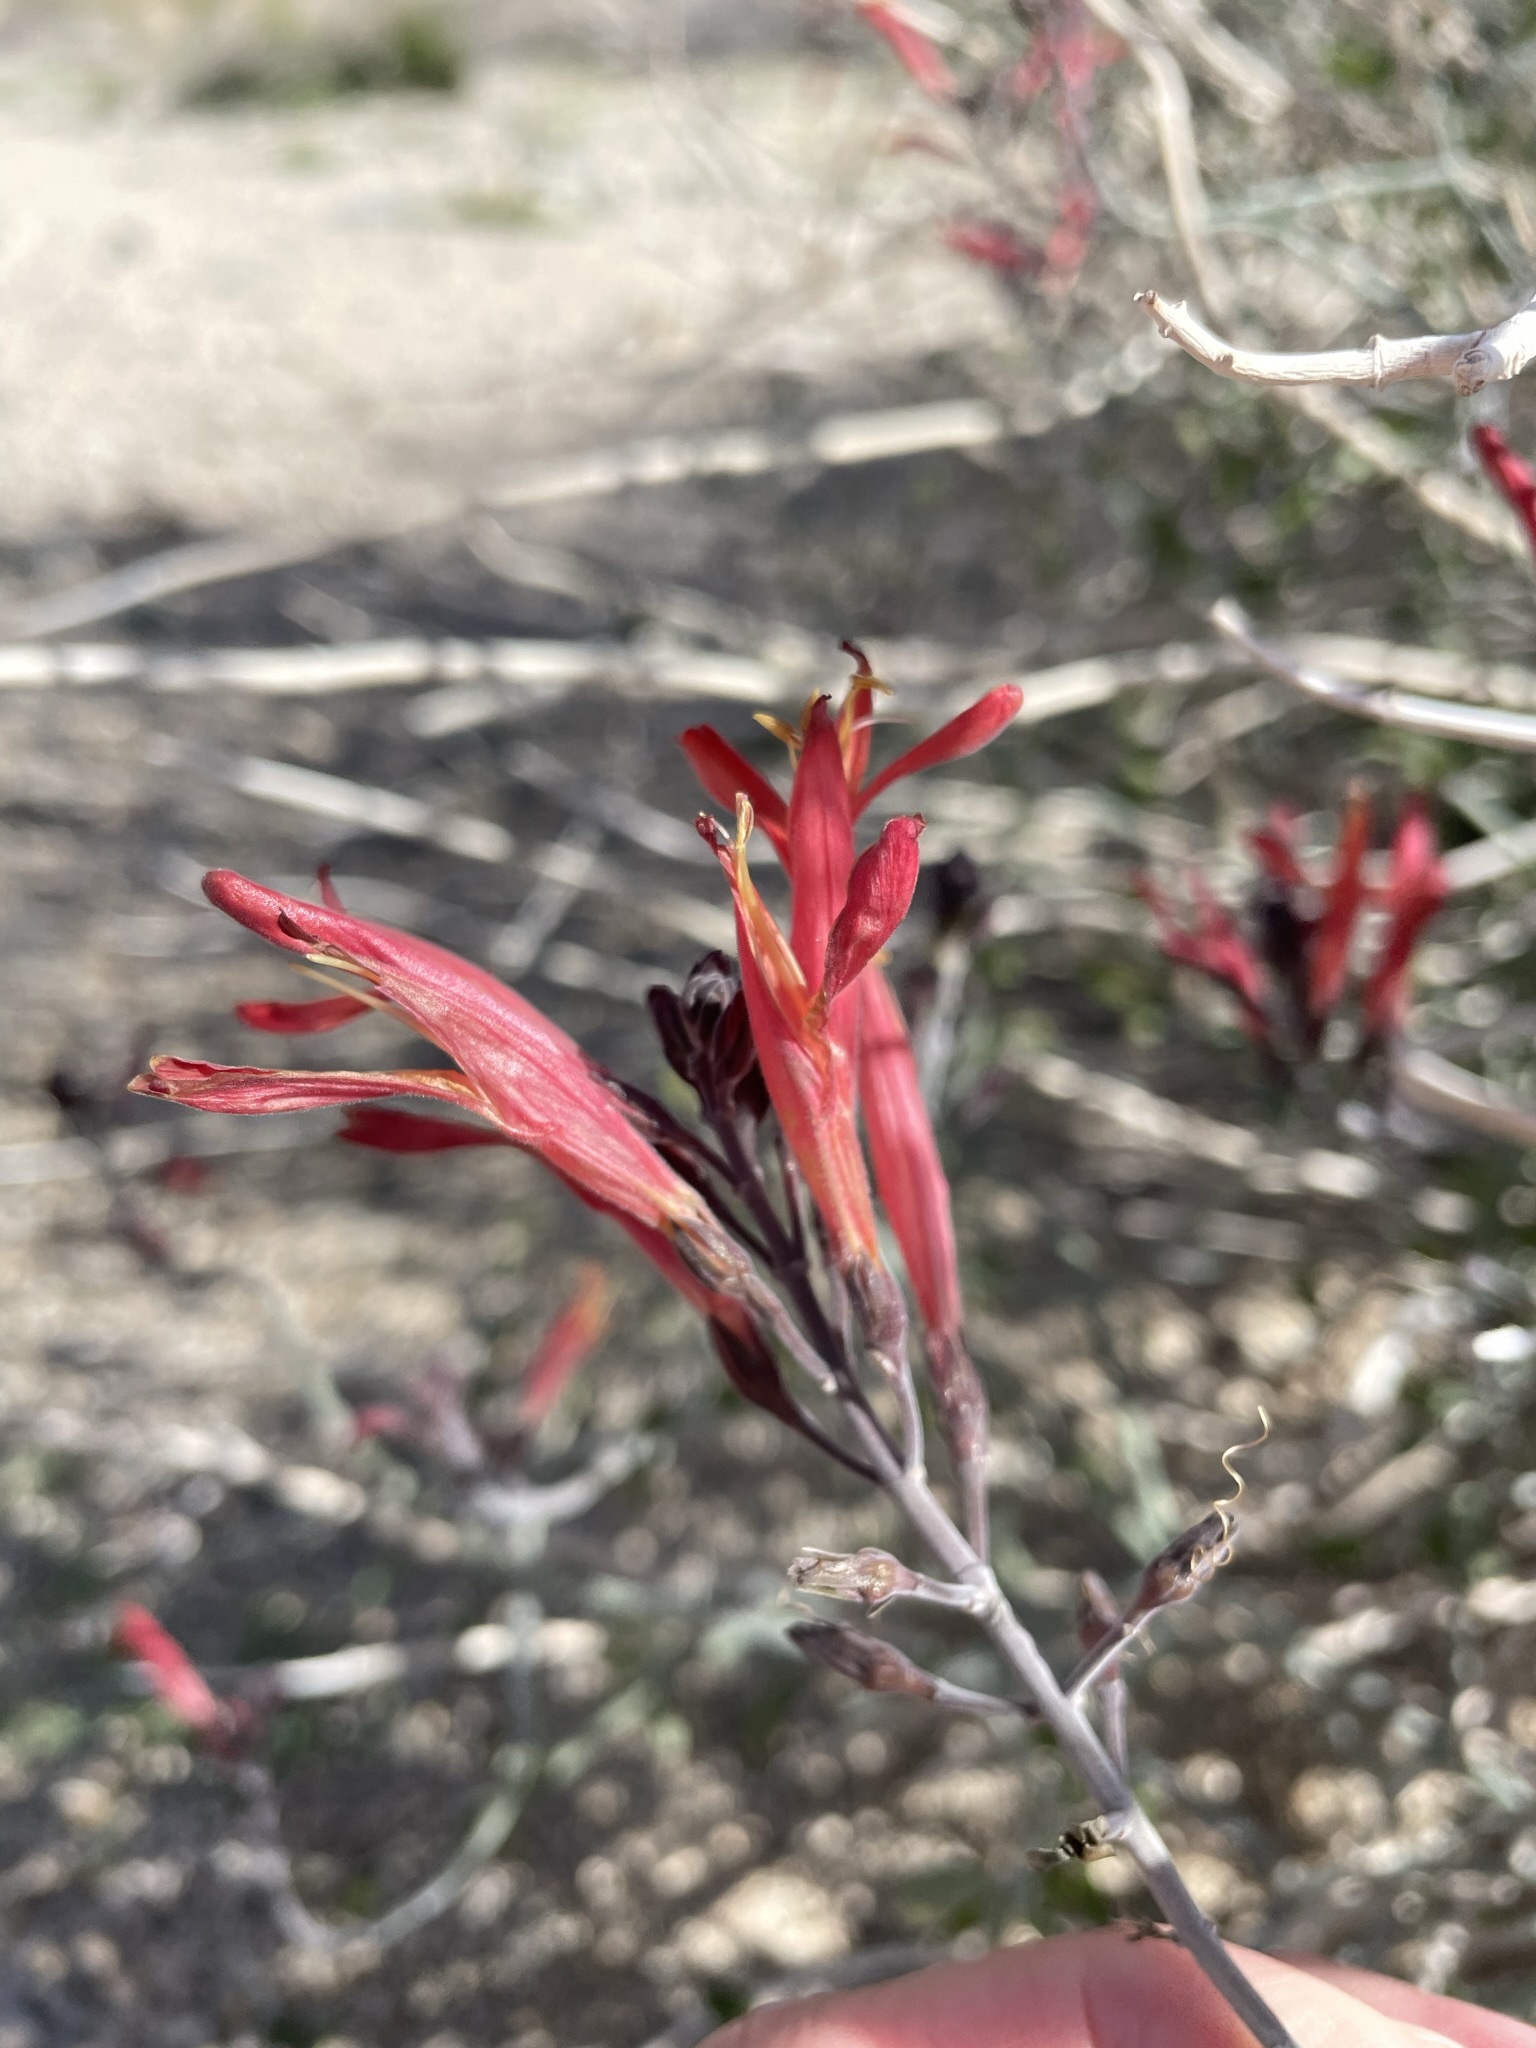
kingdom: Plantae
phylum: Tracheophyta
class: Magnoliopsida
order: Lamiales
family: Acanthaceae
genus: Justicia
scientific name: Justicia californica
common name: Chuparosa-honeysuckle
